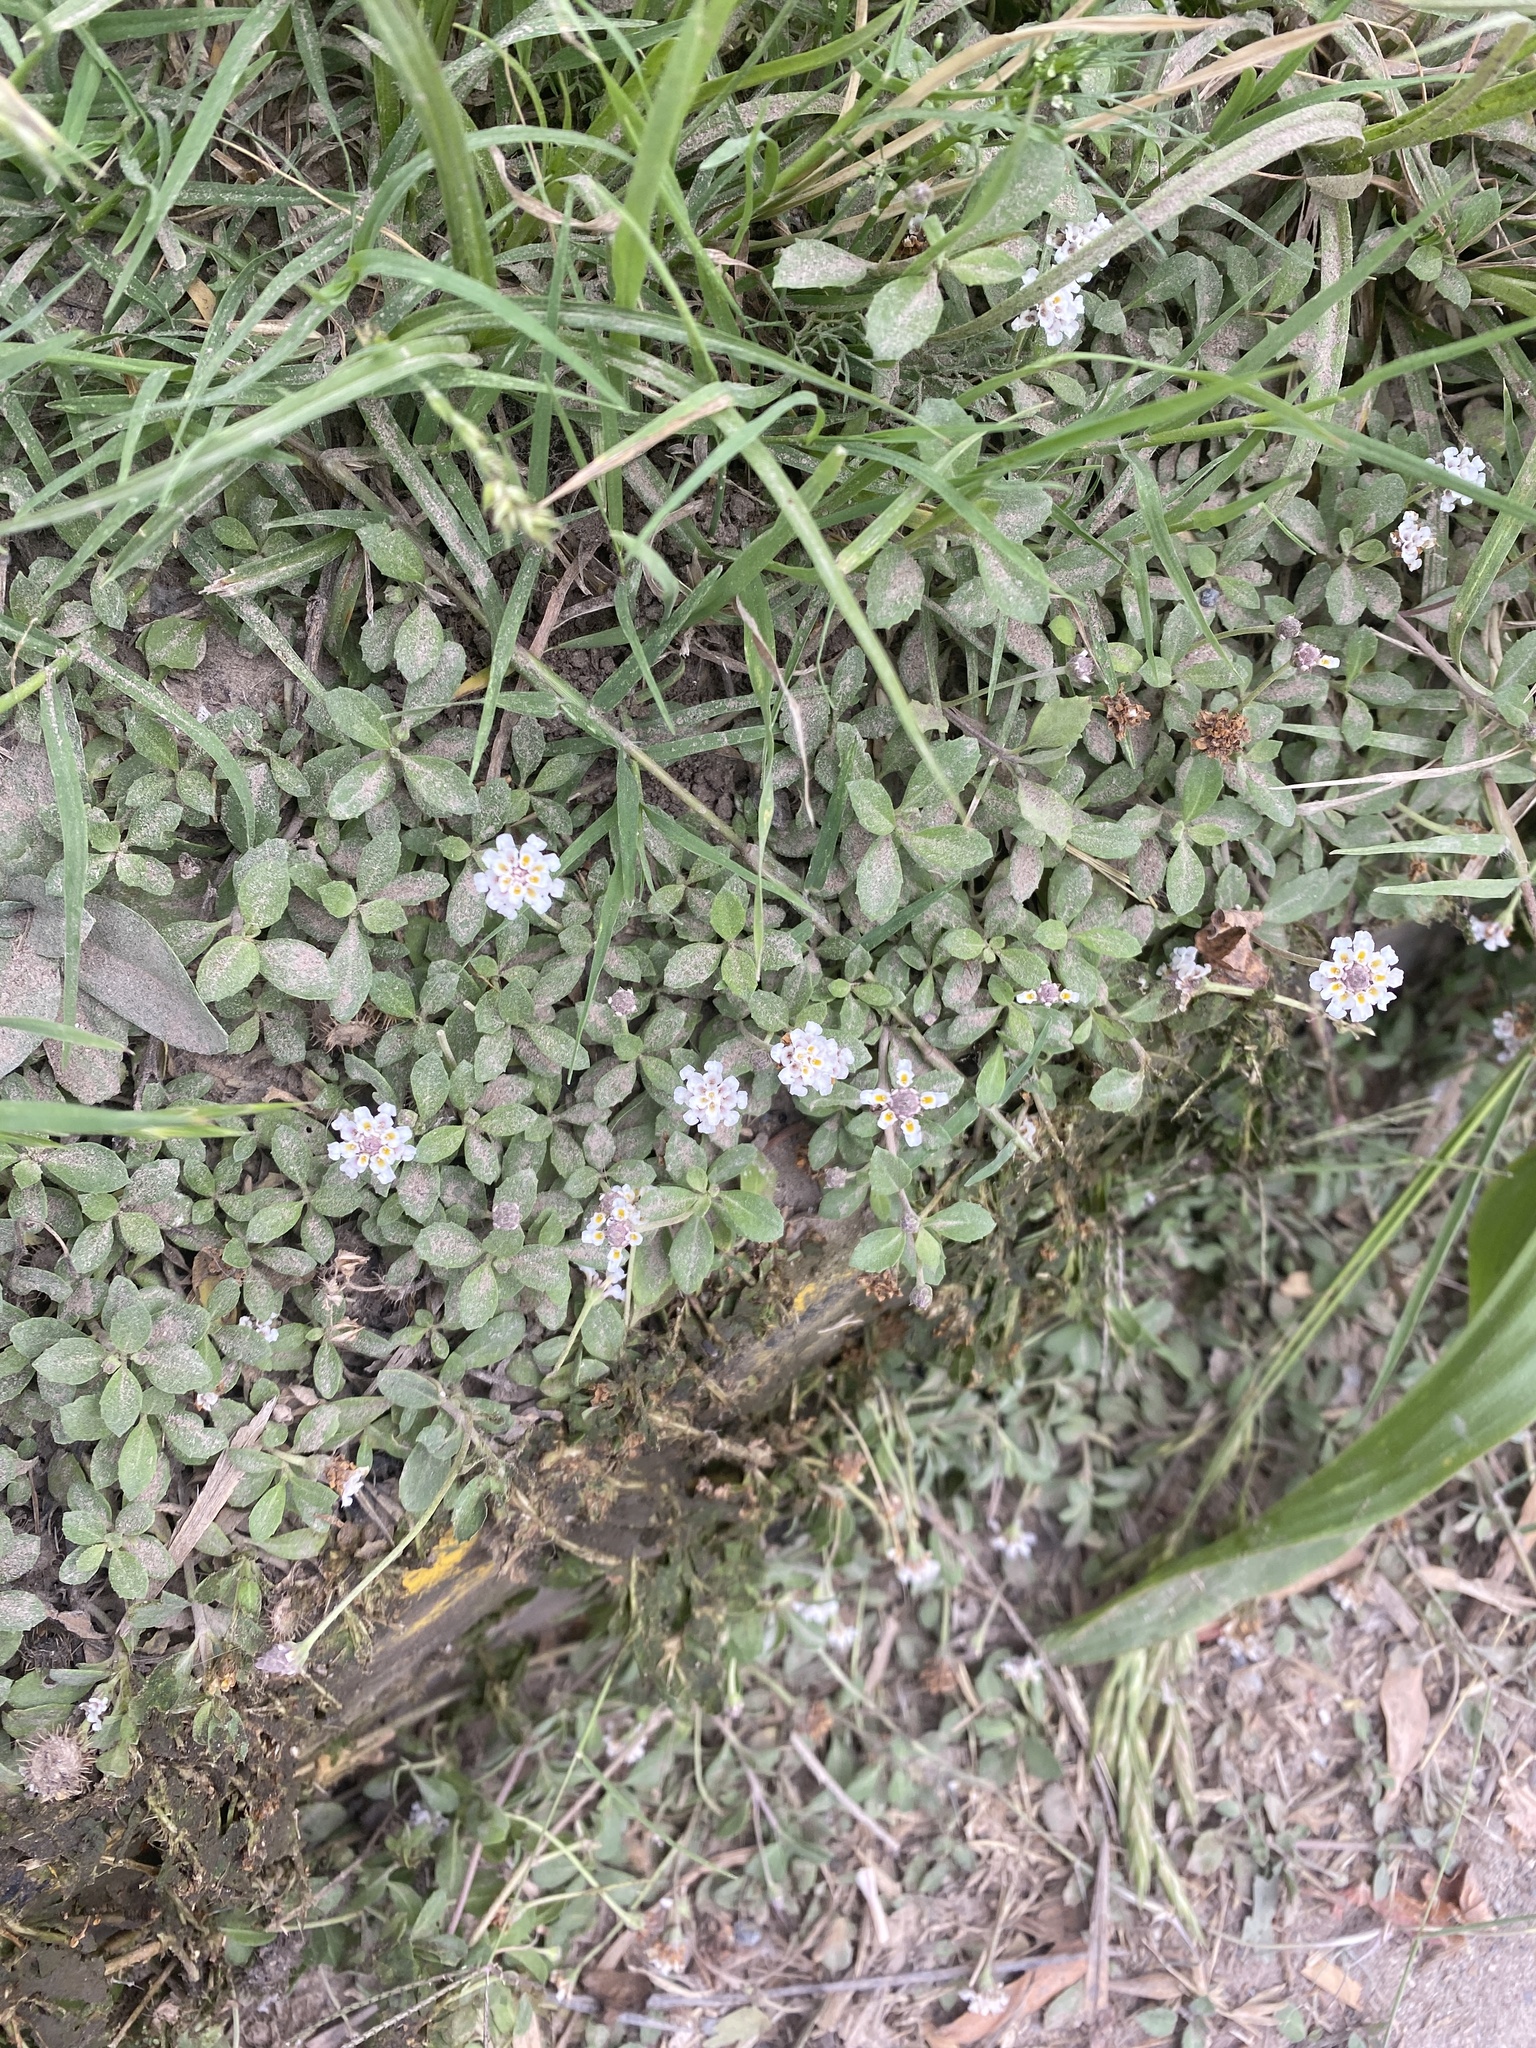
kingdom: Plantae
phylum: Tracheophyta
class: Magnoliopsida
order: Lamiales
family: Verbenaceae
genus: Phyla
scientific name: Phyla nodiflora
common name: Frogfruit
